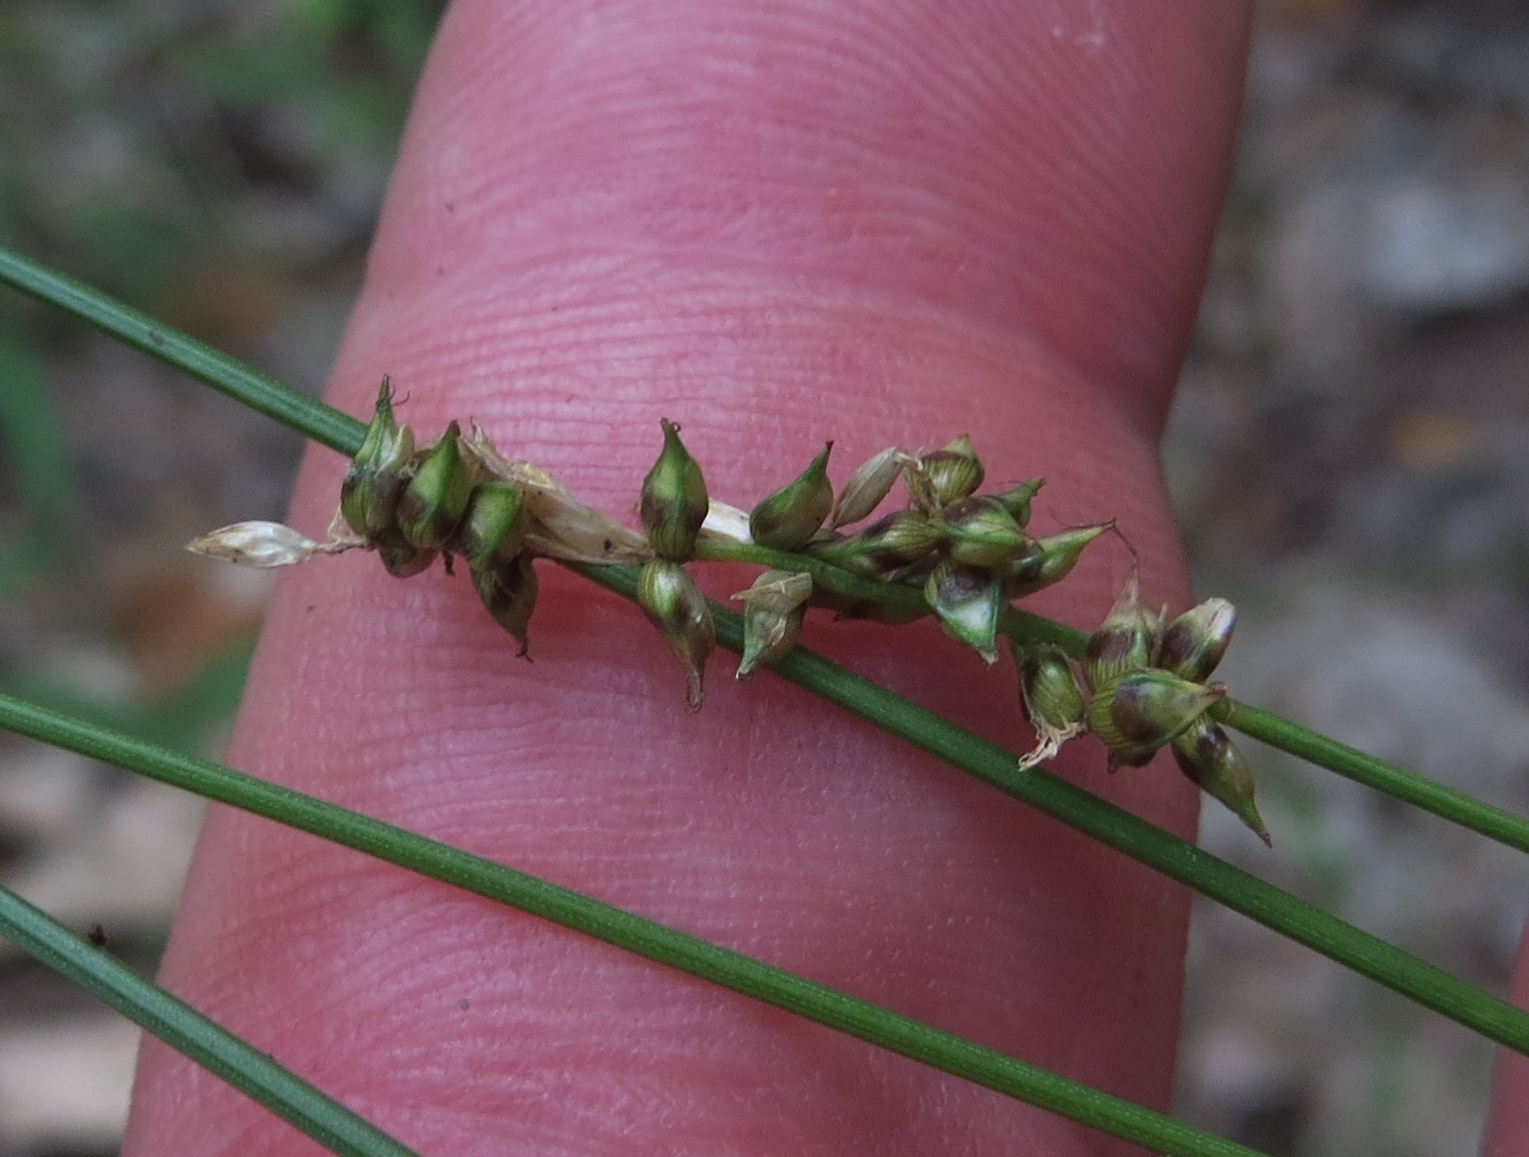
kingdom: Plantae
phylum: Tracheophyta
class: Liliopsida
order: Poales
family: Cyperaceae
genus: Carex
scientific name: Carex retroflexa
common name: Reflexed sedge
